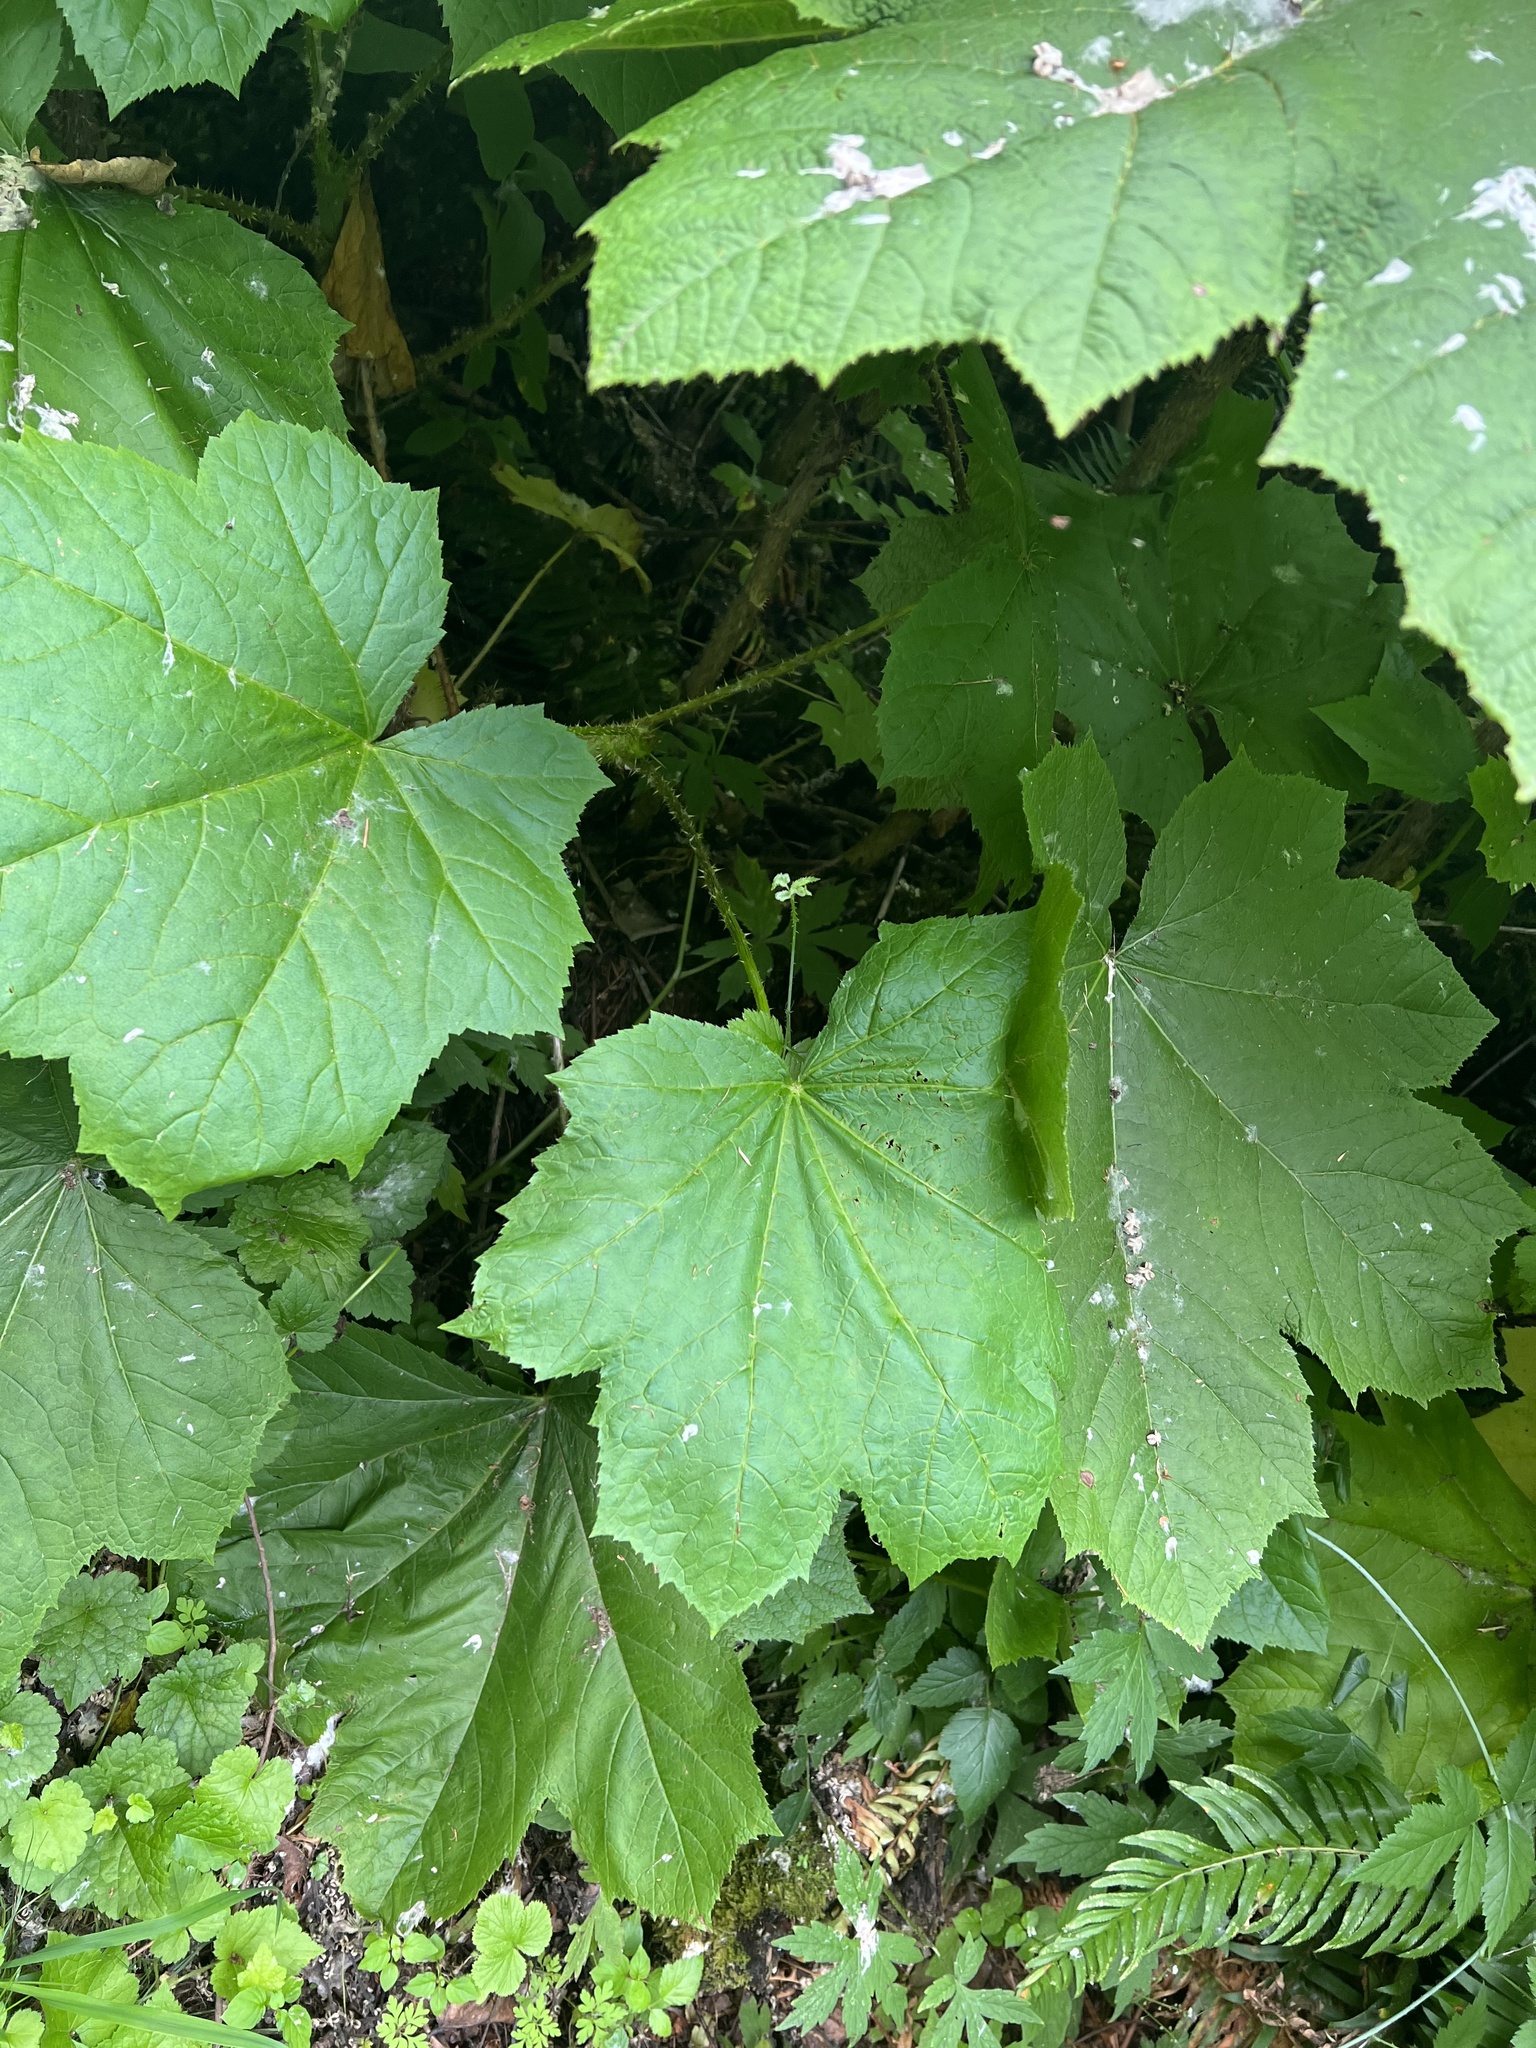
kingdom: Plantae
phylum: Tracheophyta
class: Magnoliopsida
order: Apiales
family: Araliaceae
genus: Oplopanax
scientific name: Oplopanax horridus
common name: Devil's walking-stick
